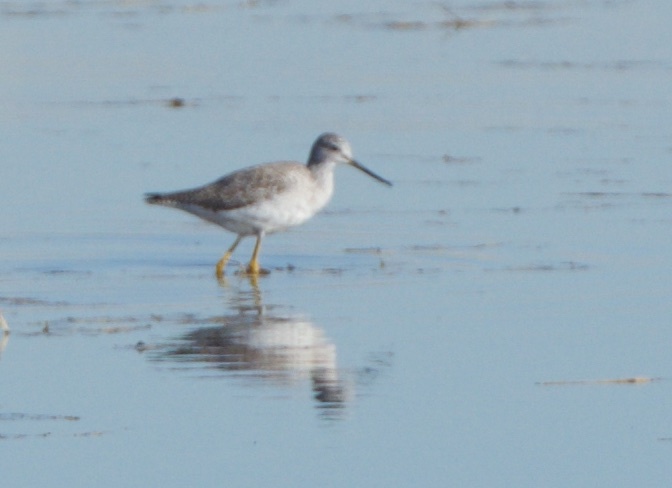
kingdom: Animalia
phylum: Chordata
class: Aves
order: Charadriiformes
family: Scolopacidae
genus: Tringa
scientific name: Tringa melanoleuca
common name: Greater yellowlegs
